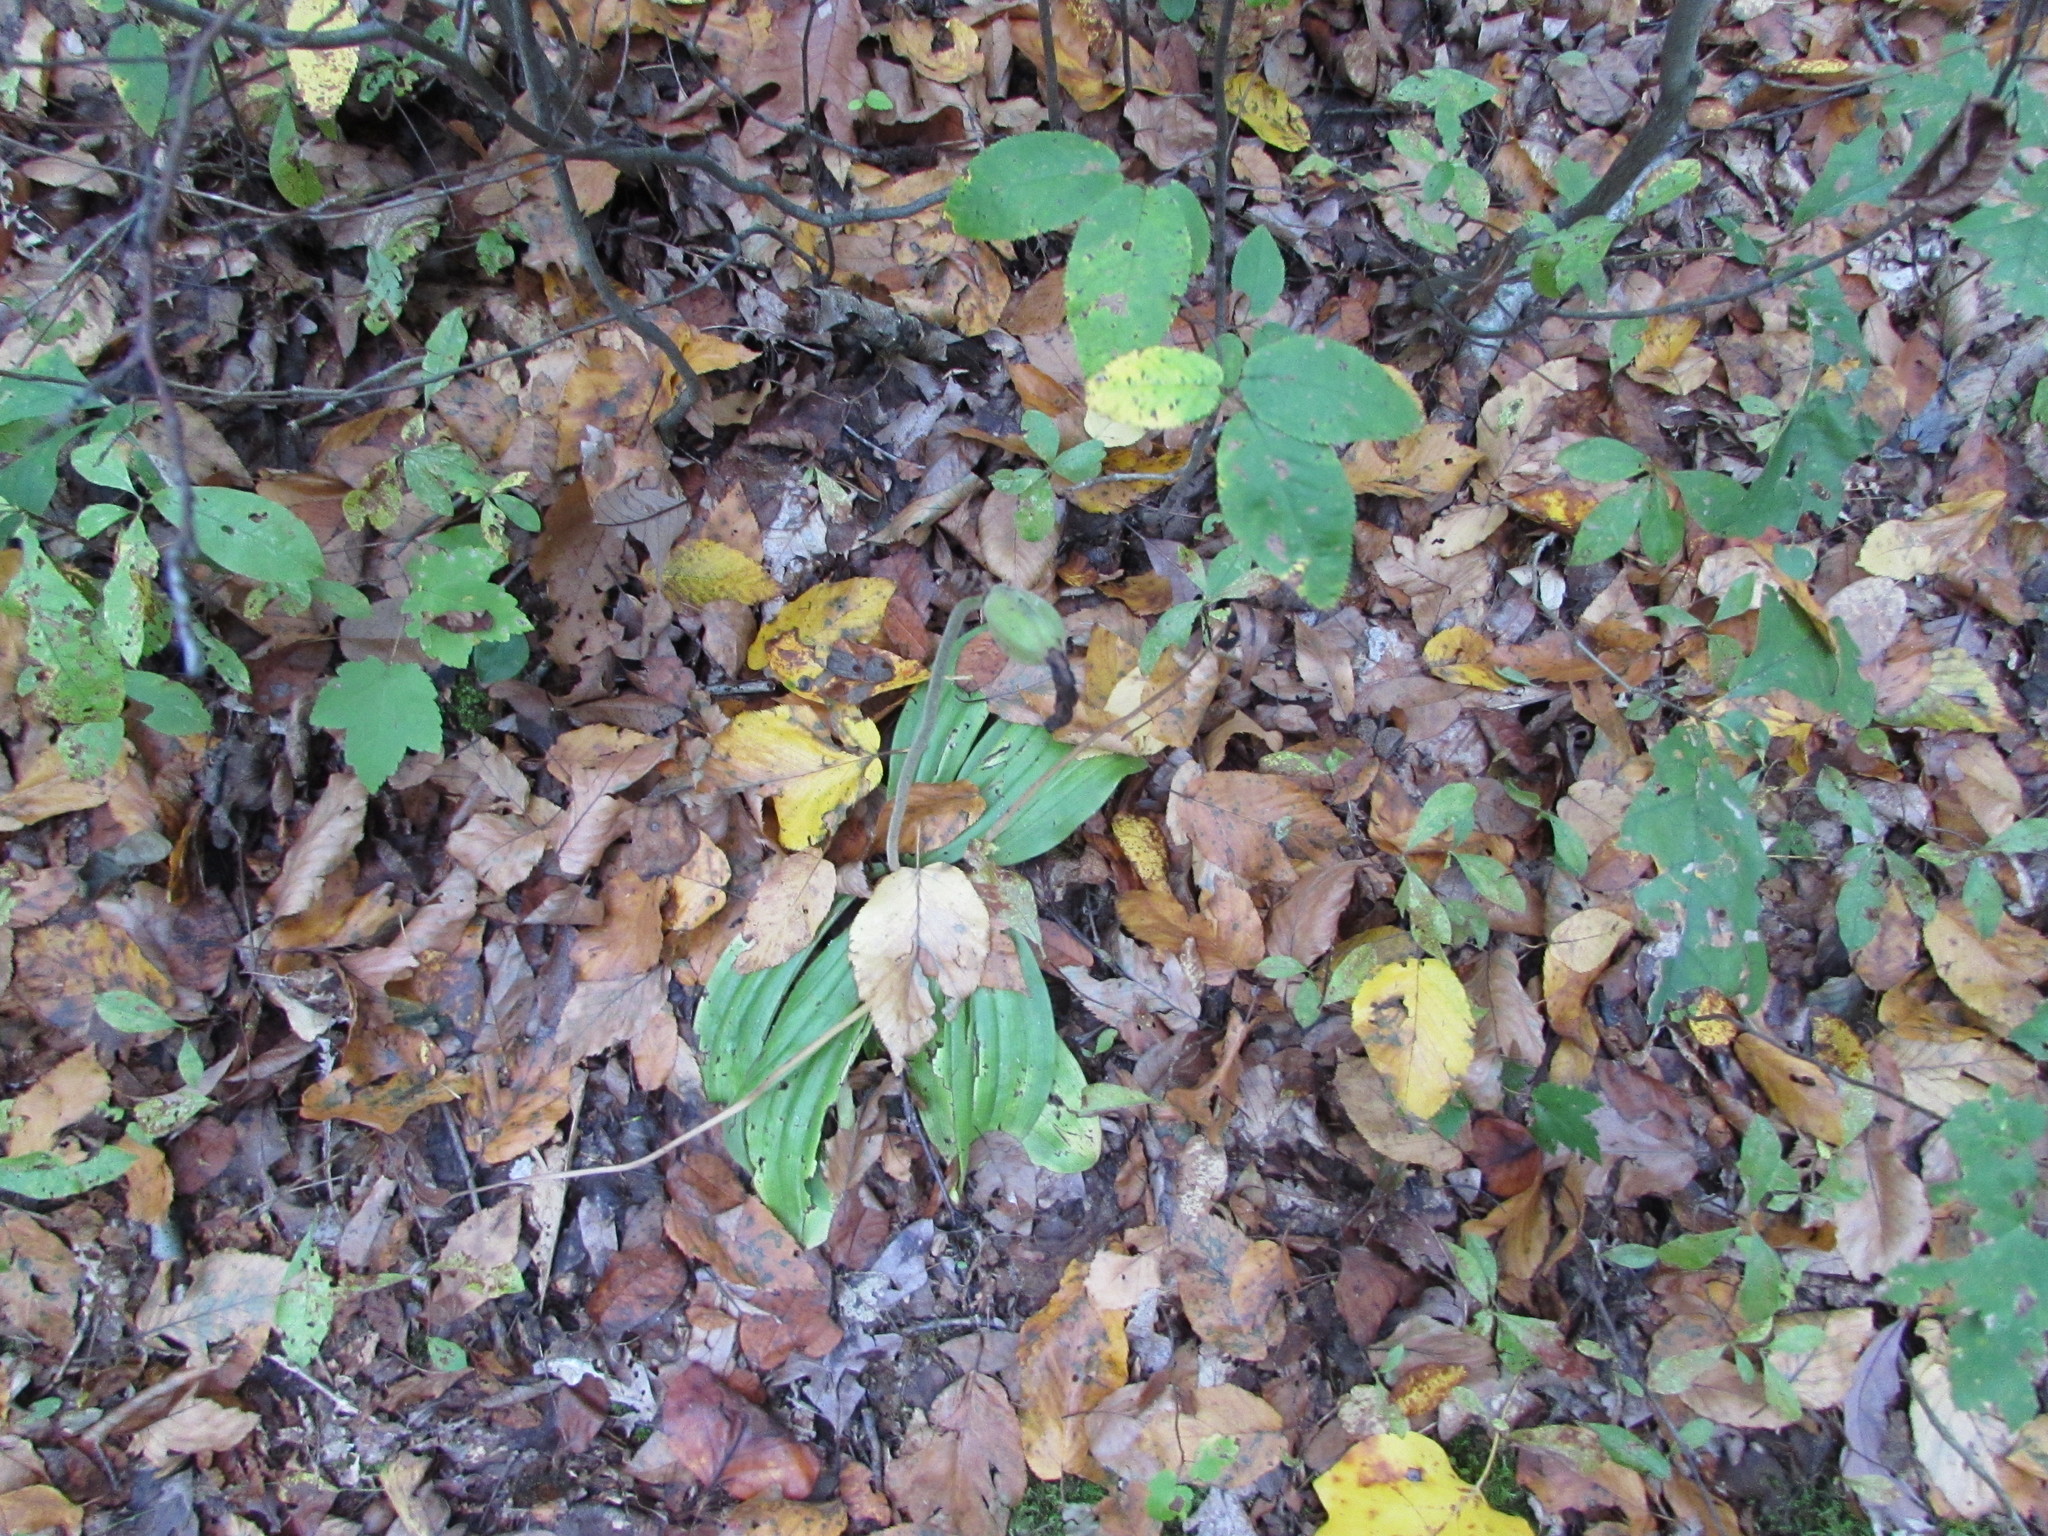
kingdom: Plantae
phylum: Tracheophyta
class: Liliopsida
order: Asparagales
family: Orchidaceae
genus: Cypripedium
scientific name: Cypripedium acaule
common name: Pink lady's-slipper
